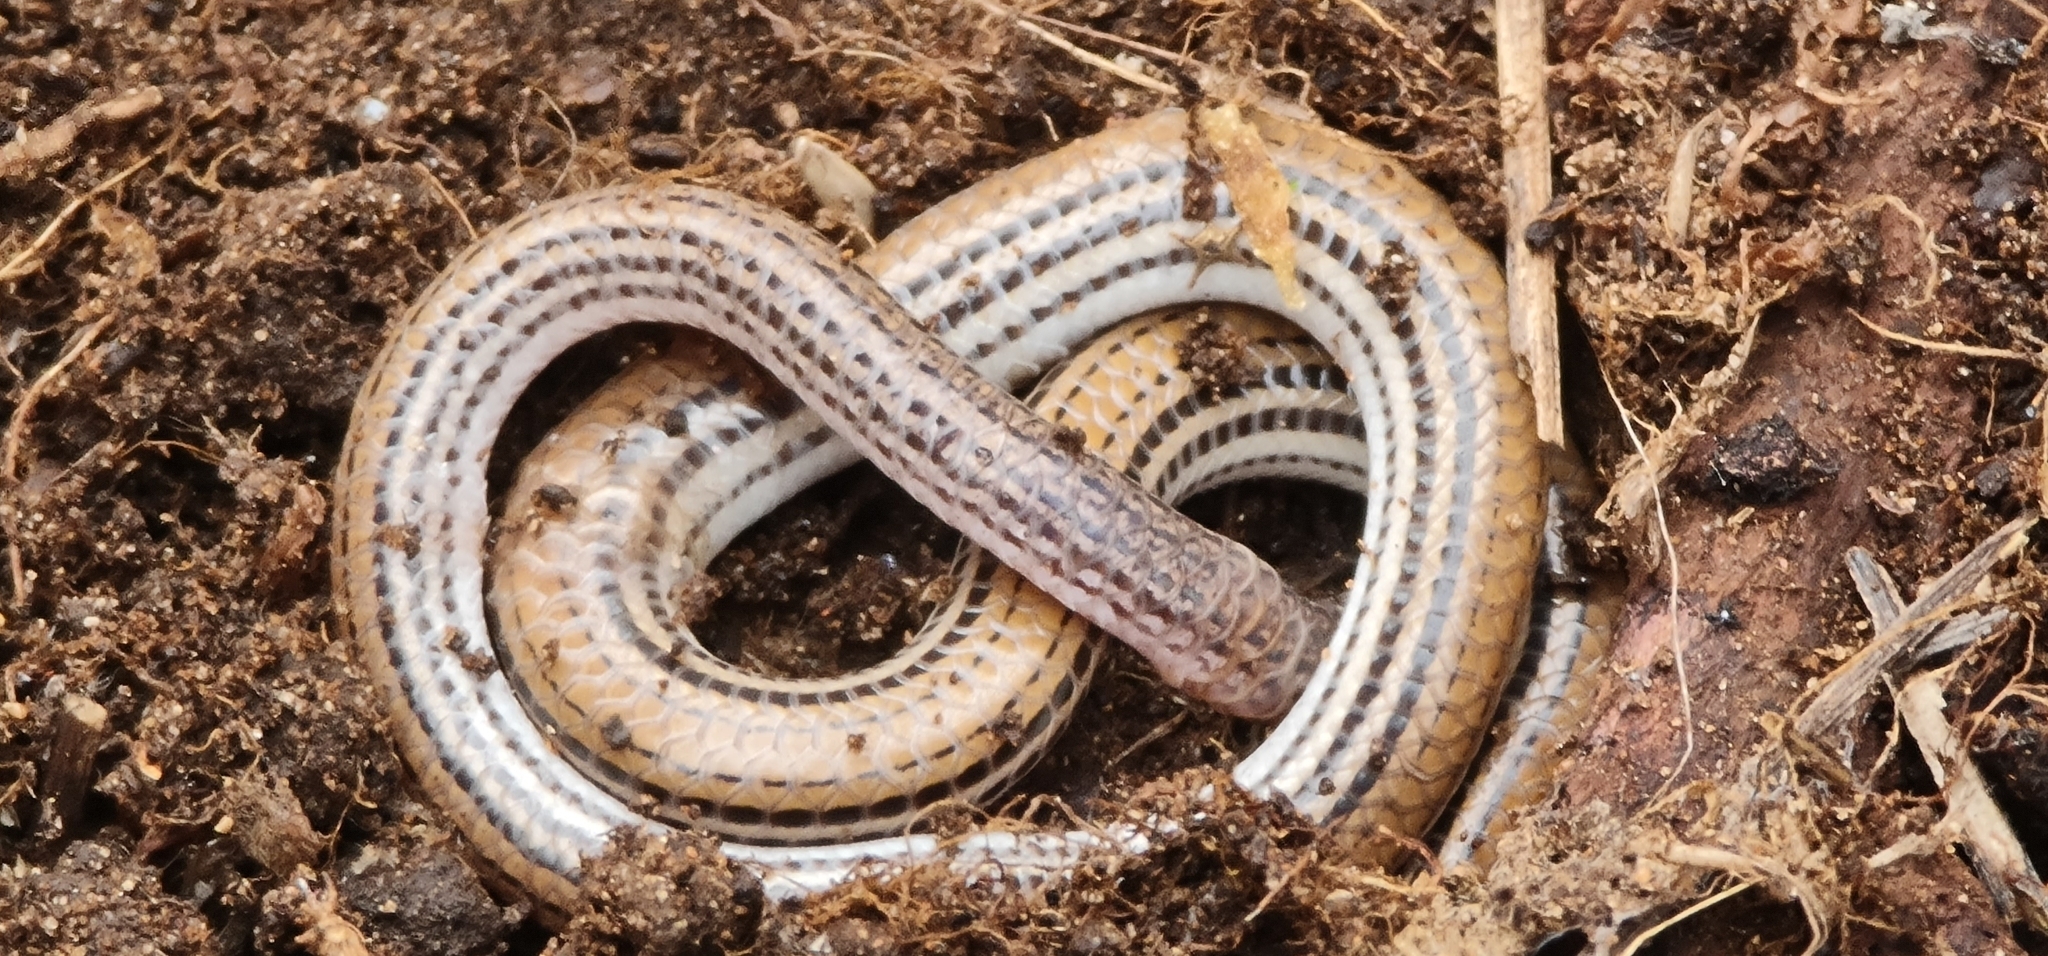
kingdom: Animalia
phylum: Chordata
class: Squamata
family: Pygopodidae
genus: Aprasia
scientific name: Aprasia striolata
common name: Striated worm-lizard
